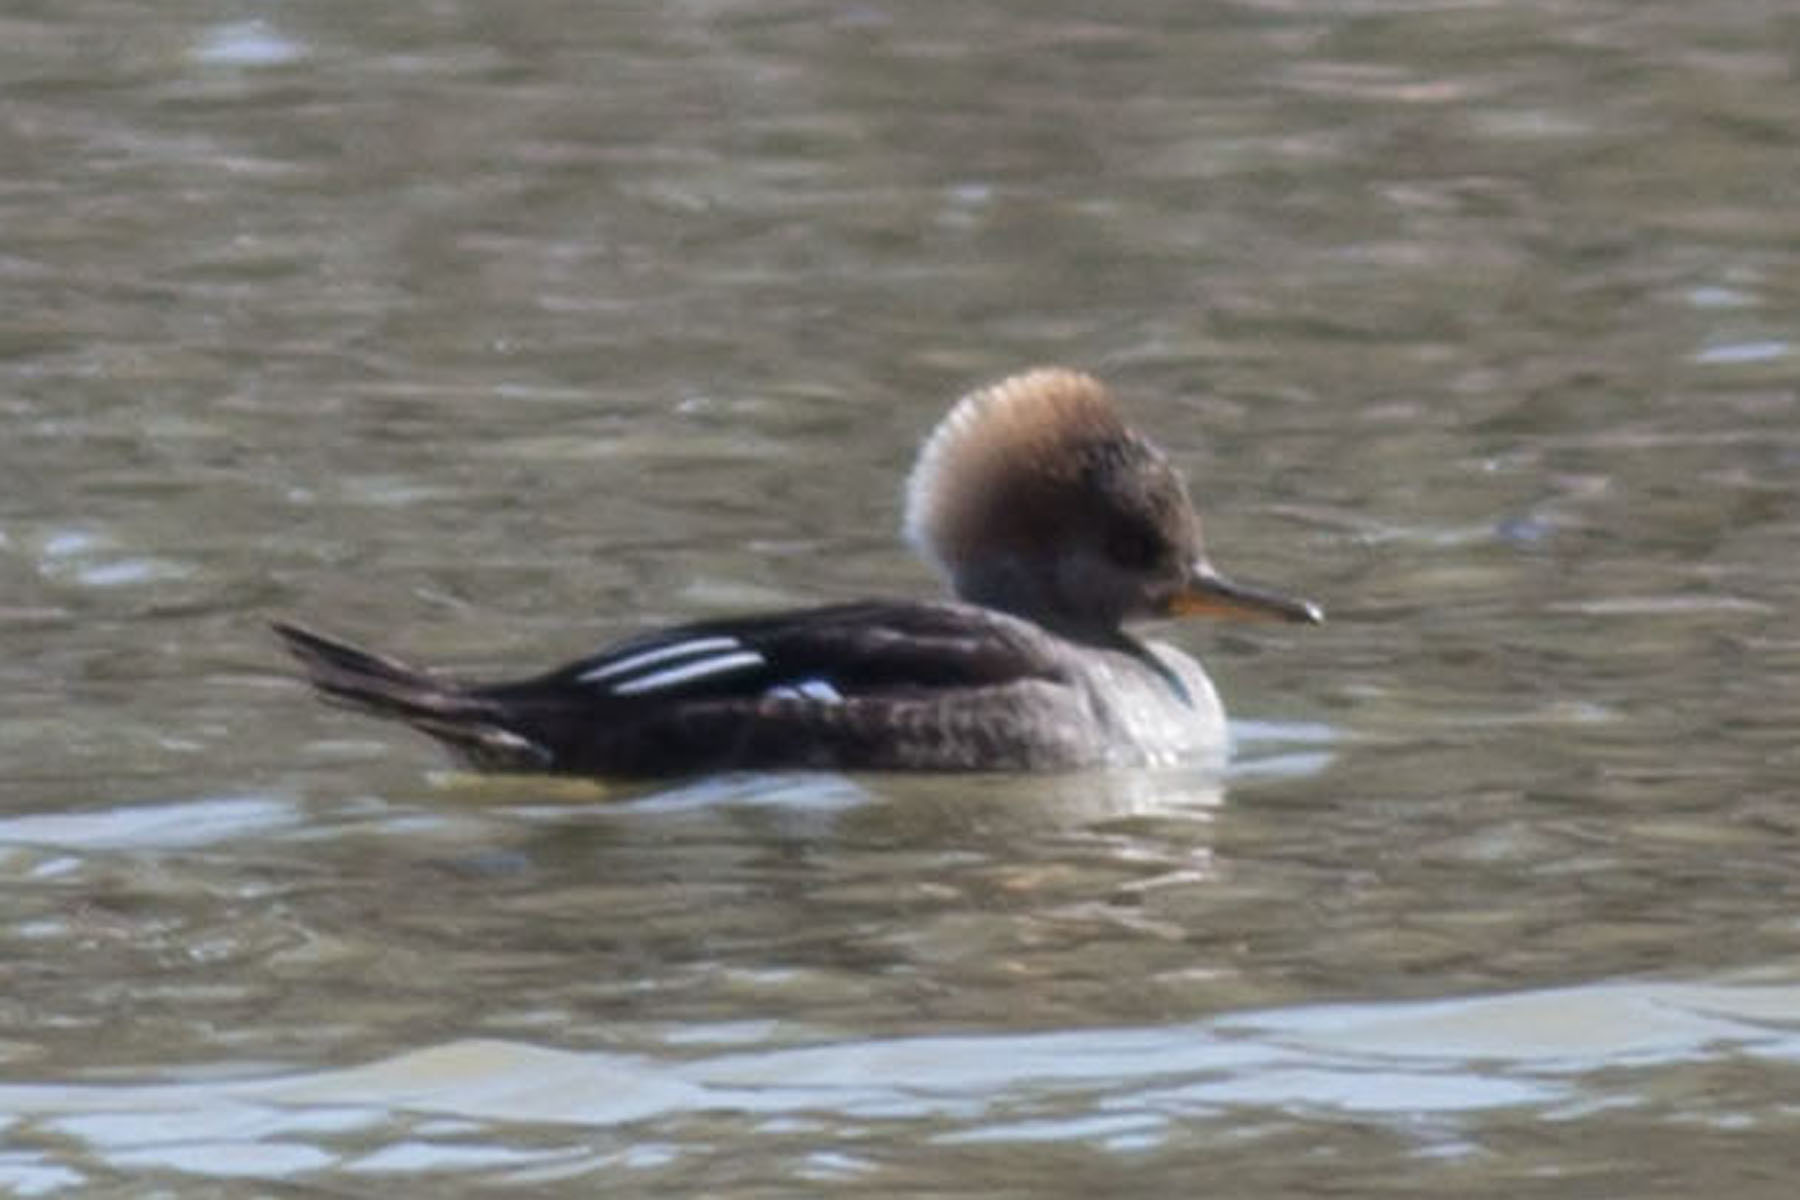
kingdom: Animalia
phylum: Chordata
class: Aves
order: Anseriformes
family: Anatidae
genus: Lophodytes
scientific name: Lophodytes cucullatus
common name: Hooded merganser
